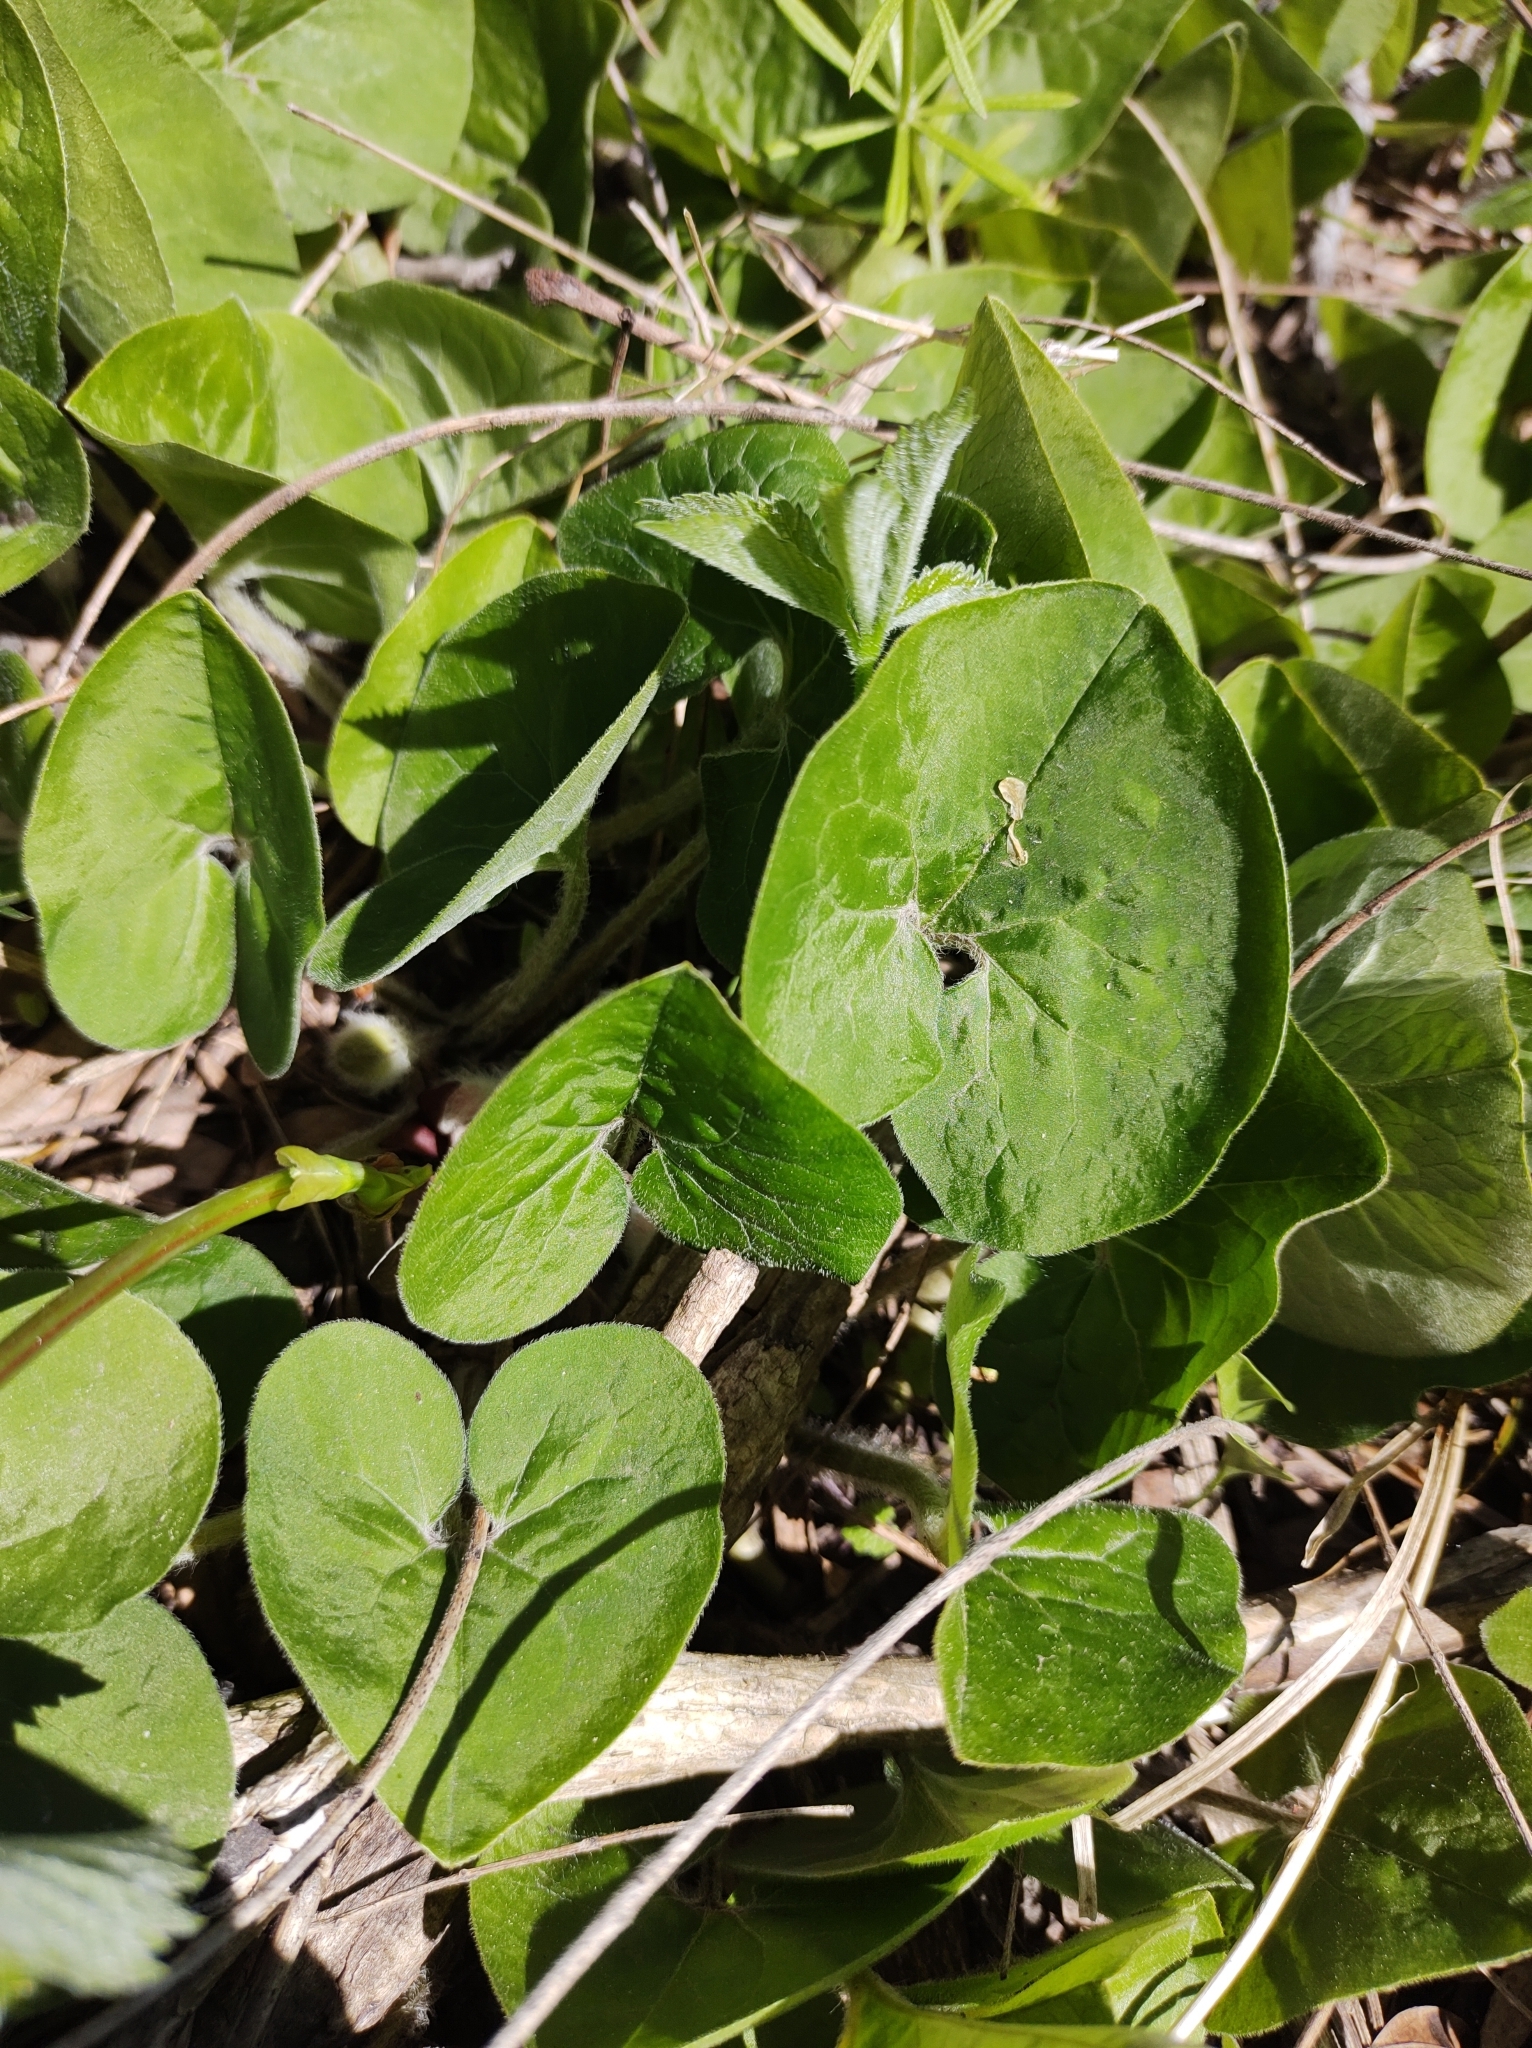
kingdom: Plantae
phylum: Tracheophyta
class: Magnoliopsida
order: Piperales
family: Aristolochiaceae
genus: Asarum
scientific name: Asarum canadense
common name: Wild ginger
